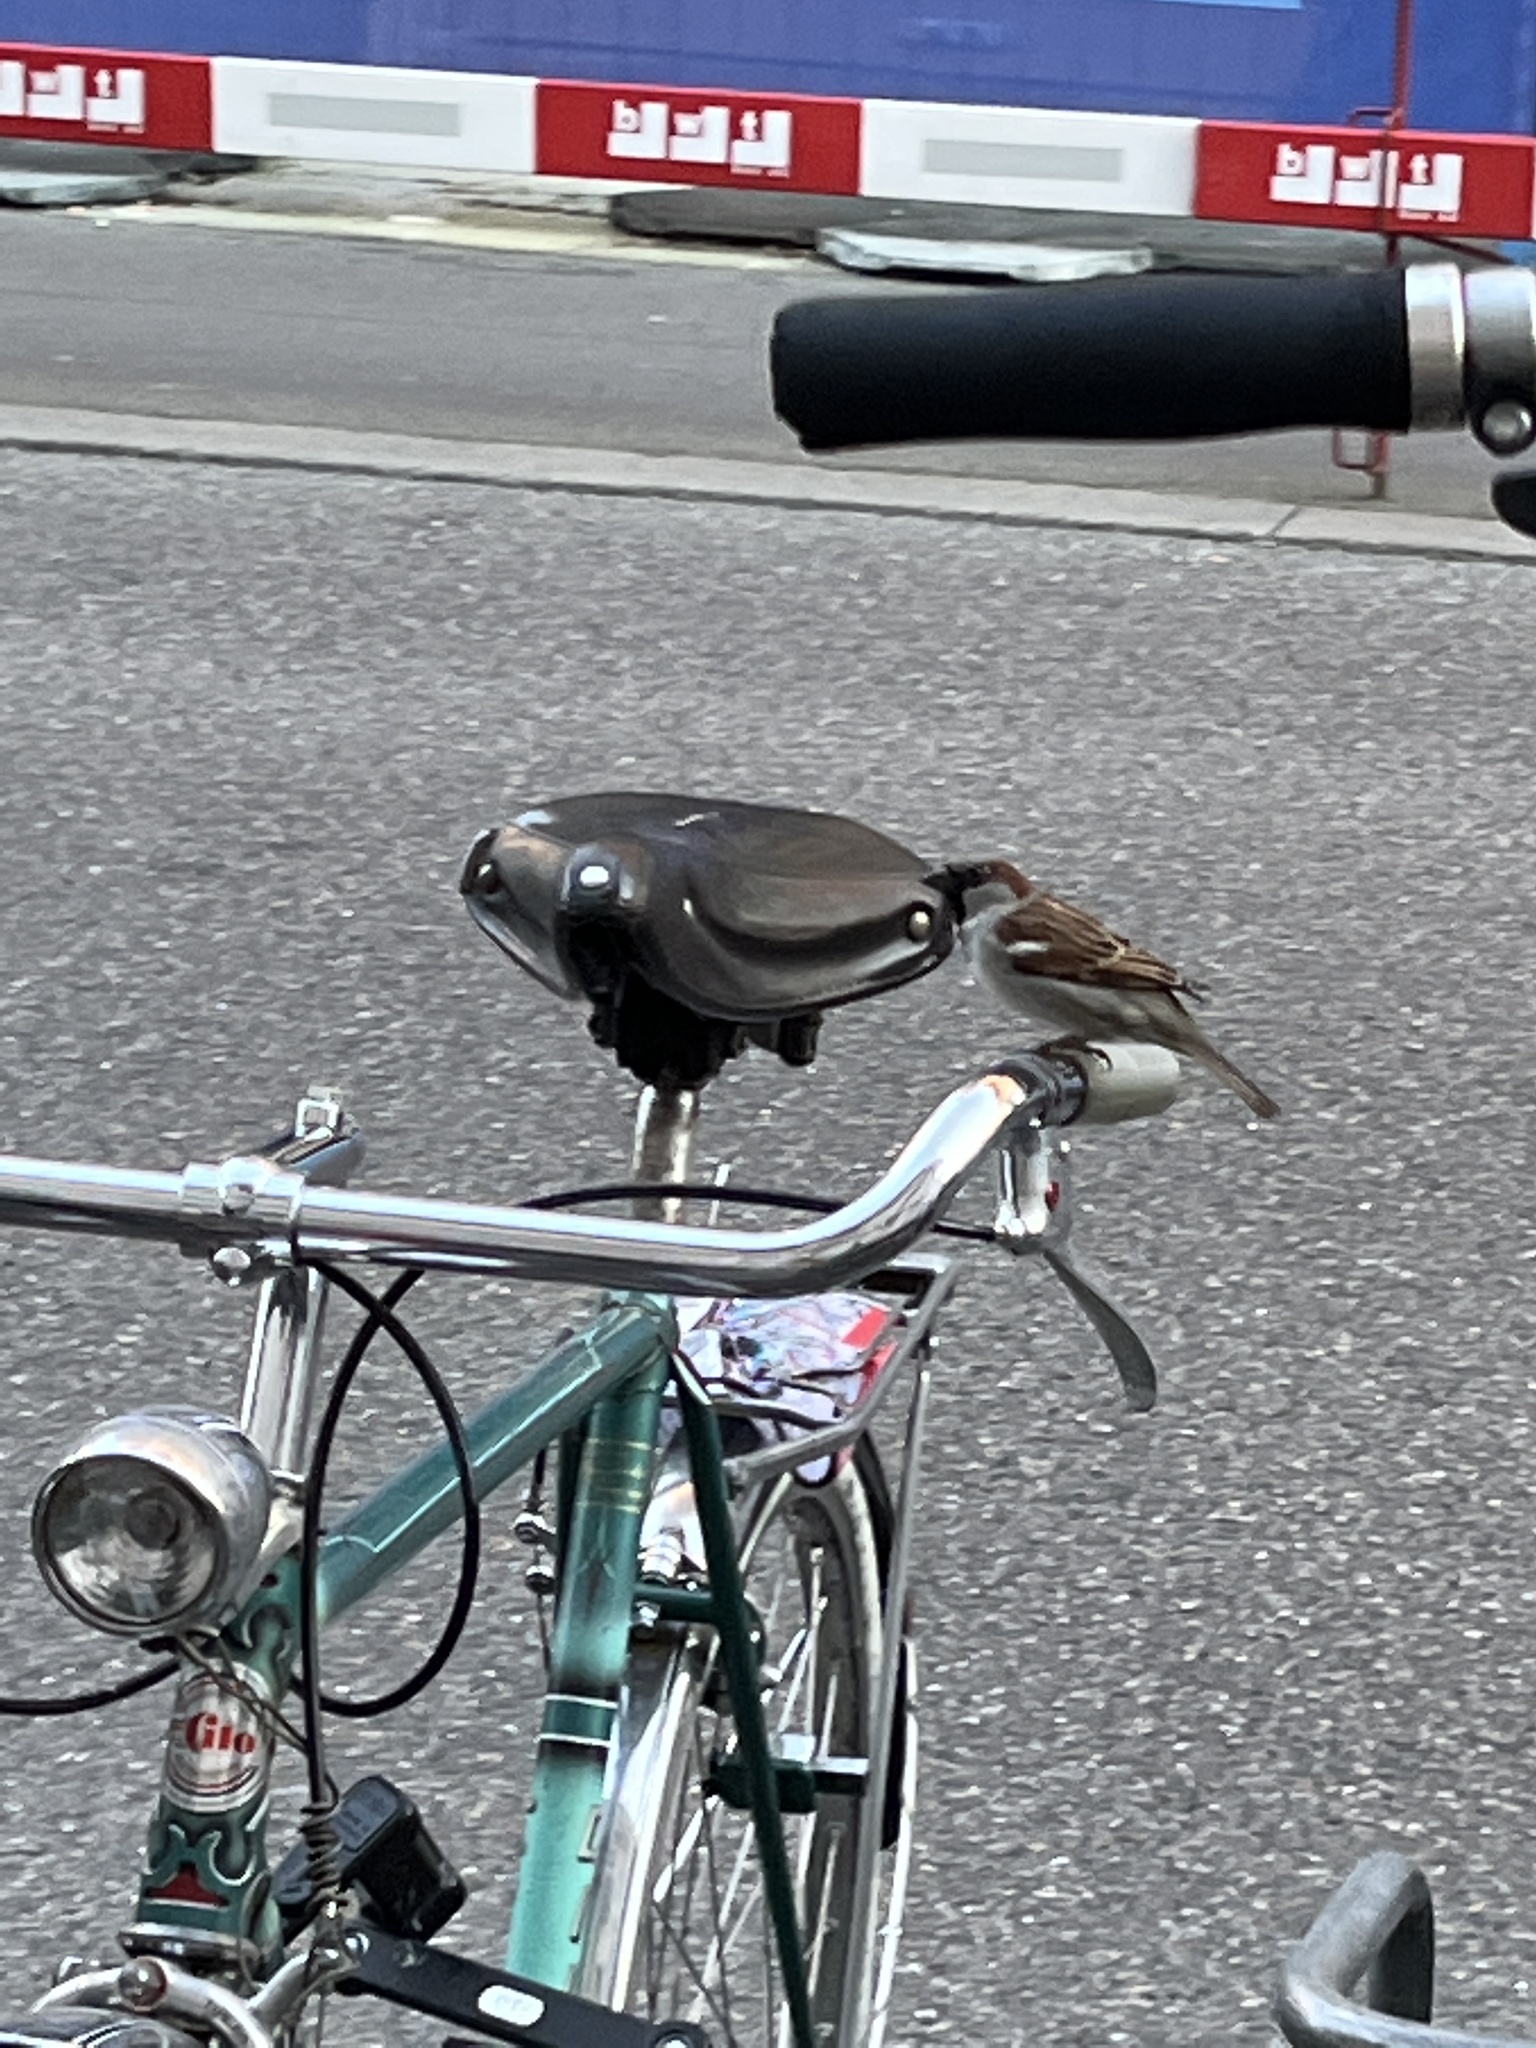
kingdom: Animalia
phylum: Chordata
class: Aves
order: Passeriformes
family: Passeridae
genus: Passer
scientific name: Passer domesticus
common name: House sparrow
